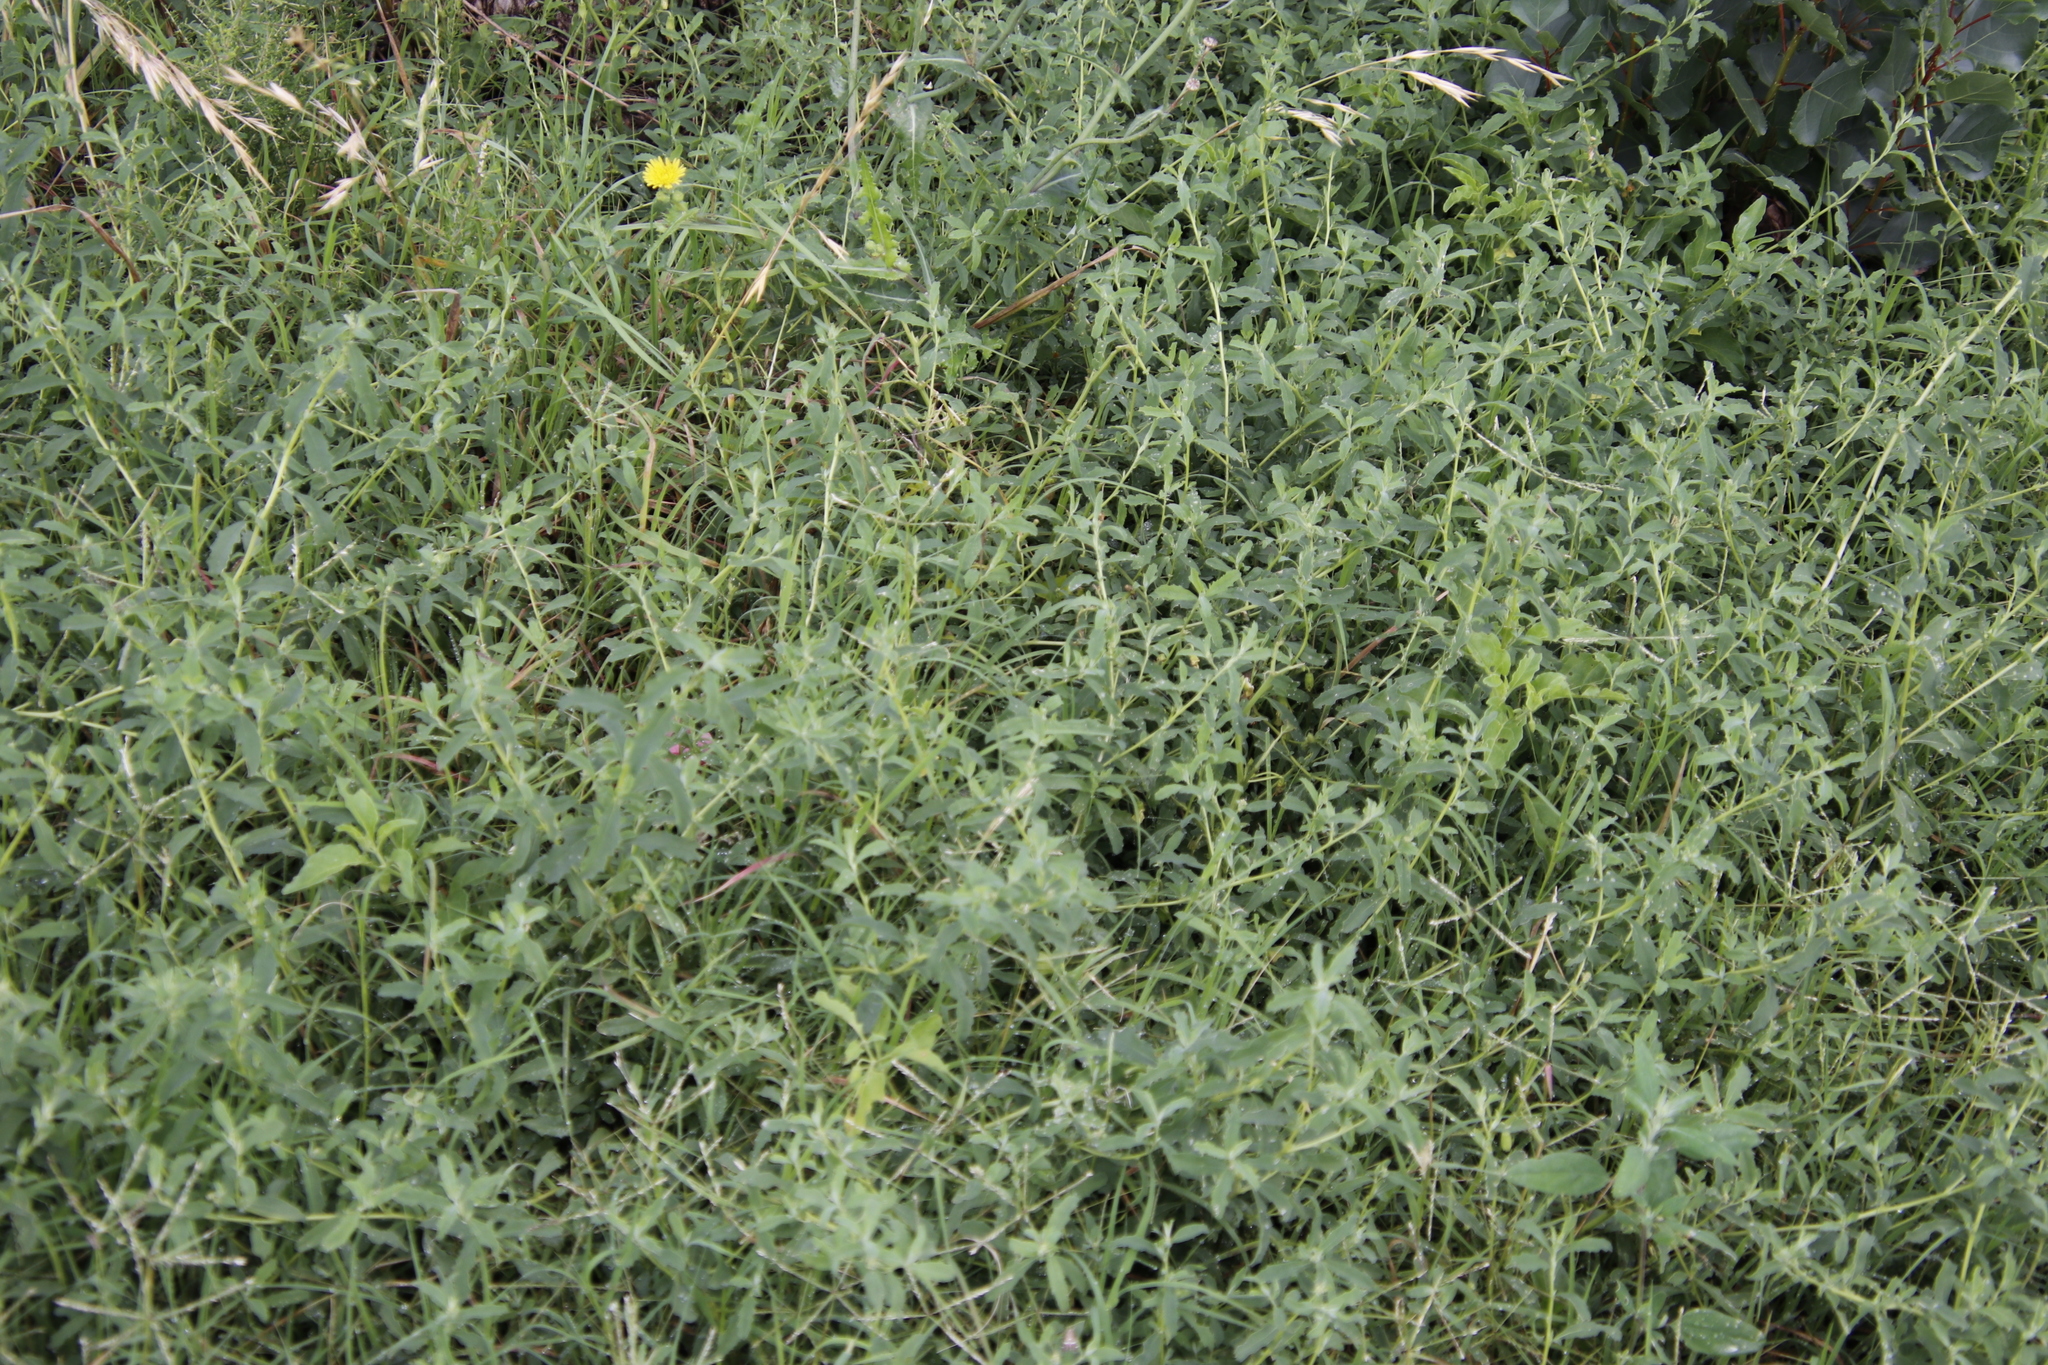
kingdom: Plantae
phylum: Tracheophyta
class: Magnoliopsida
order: Caryophyllales
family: Amaranthaceae
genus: Atriplex
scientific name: Atriplex semibaccata
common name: Australian saltbush
